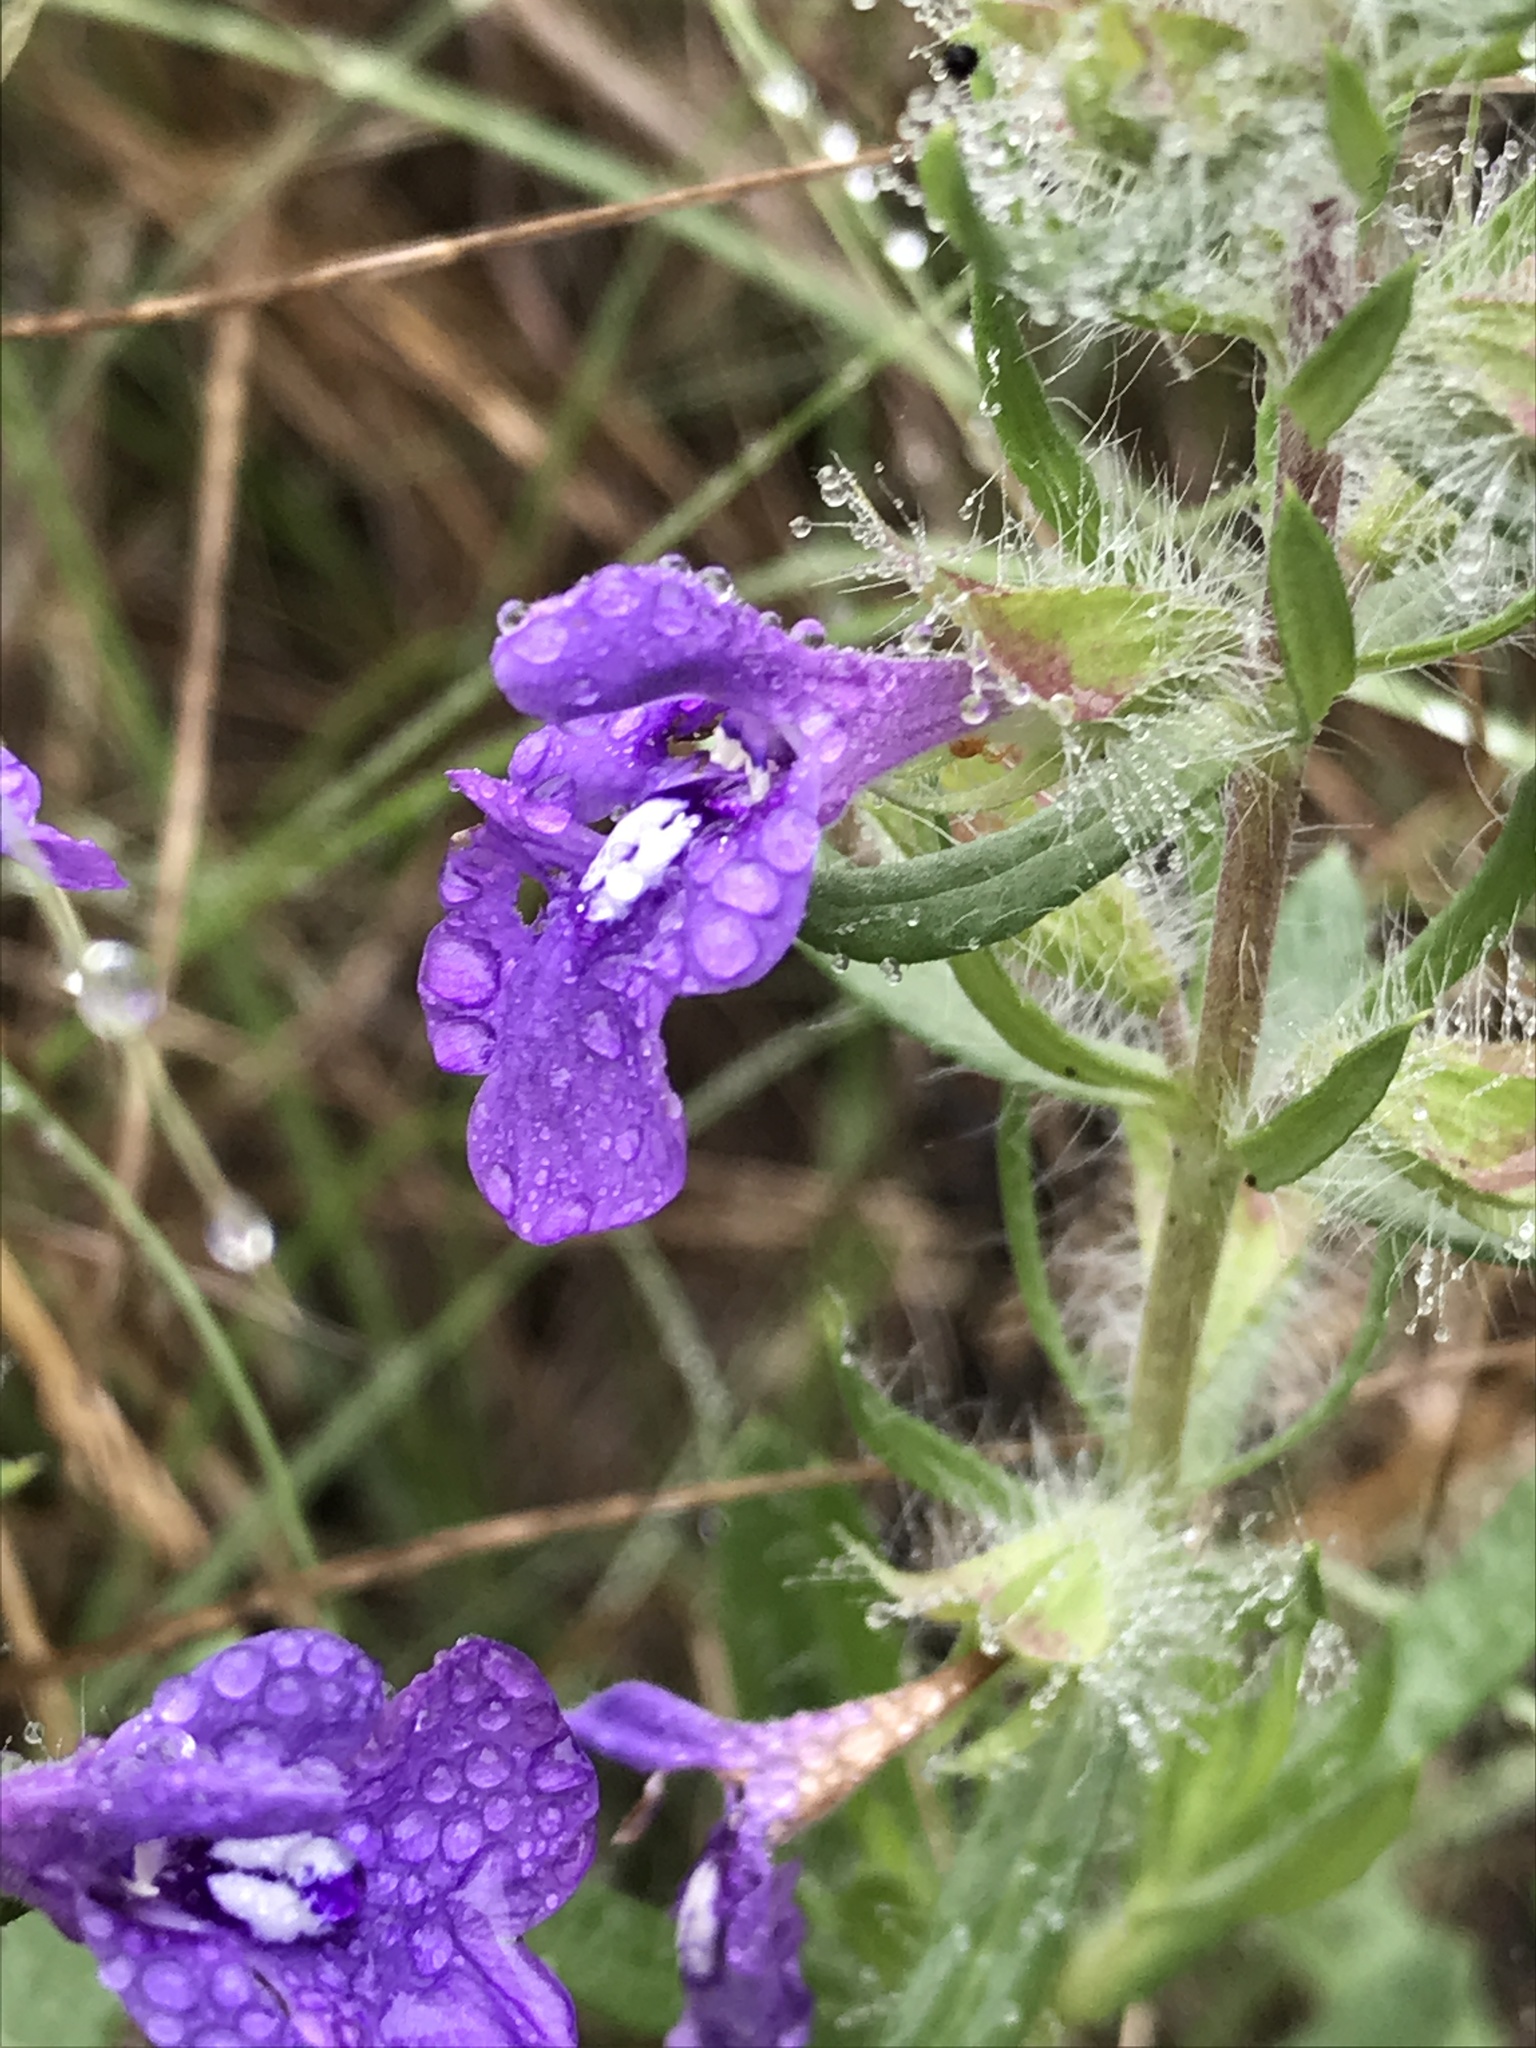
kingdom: Plantae
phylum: Tracheophyta
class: Magnoliopsida
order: Lamiales
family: Lamiaceae
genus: Salvia
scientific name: Salvia texana
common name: Texas sage
